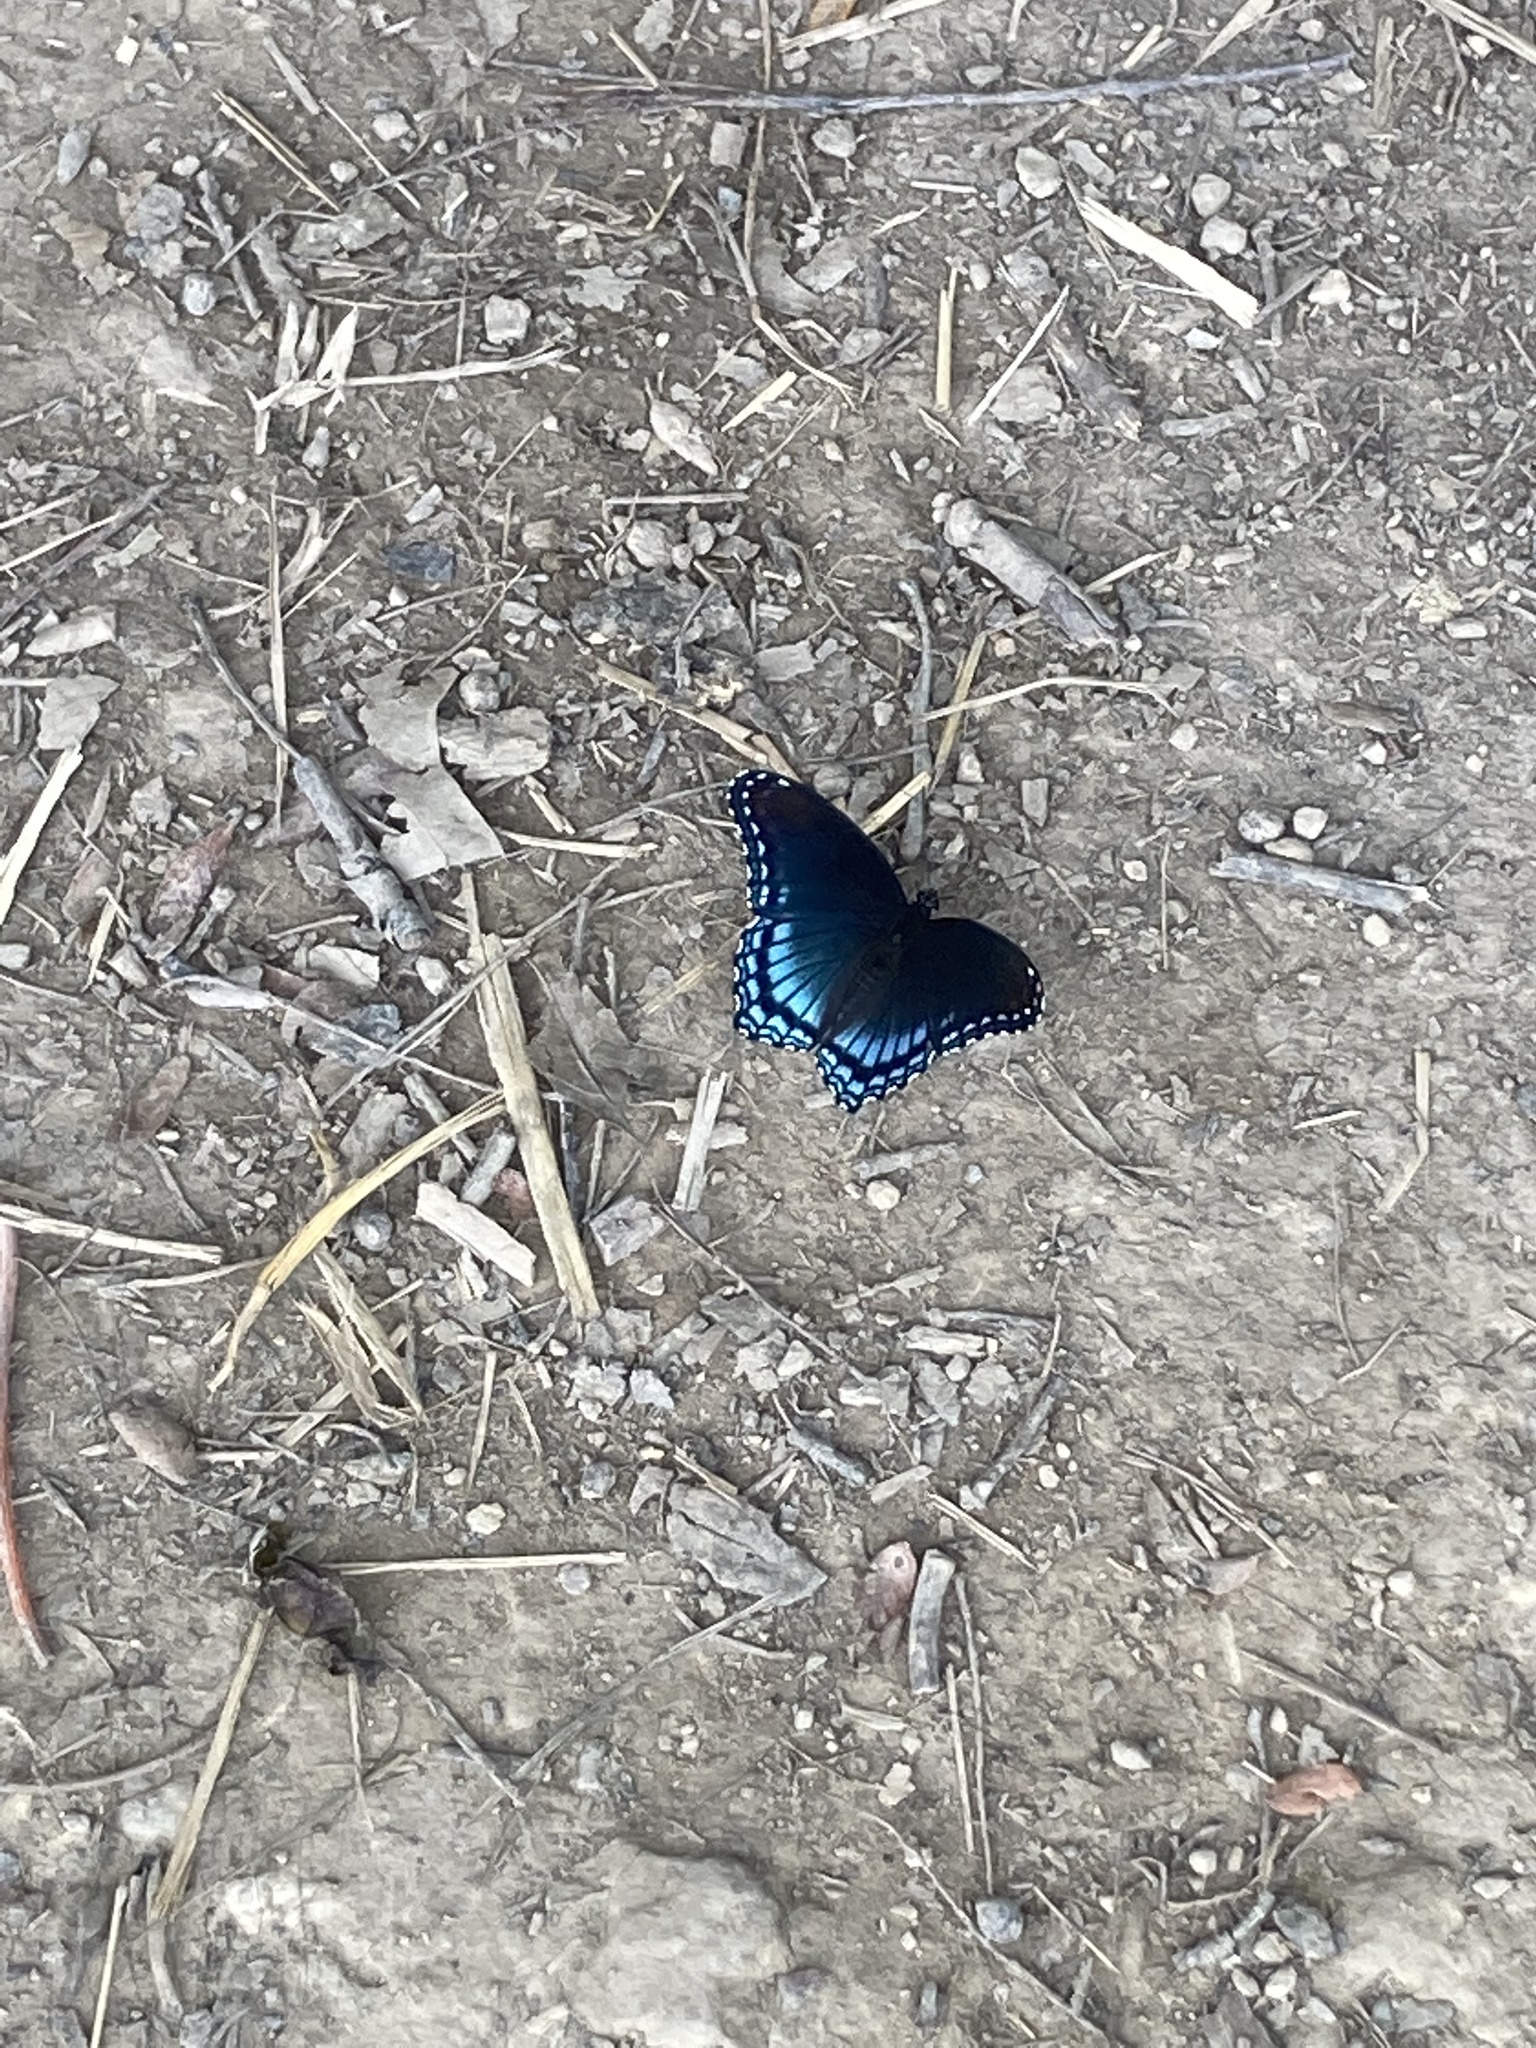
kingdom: Animalia
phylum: Arthropoda
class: Insecta
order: Lepidoptera
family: Nymphalidae
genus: Limenitis
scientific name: Limenitis astyanax
